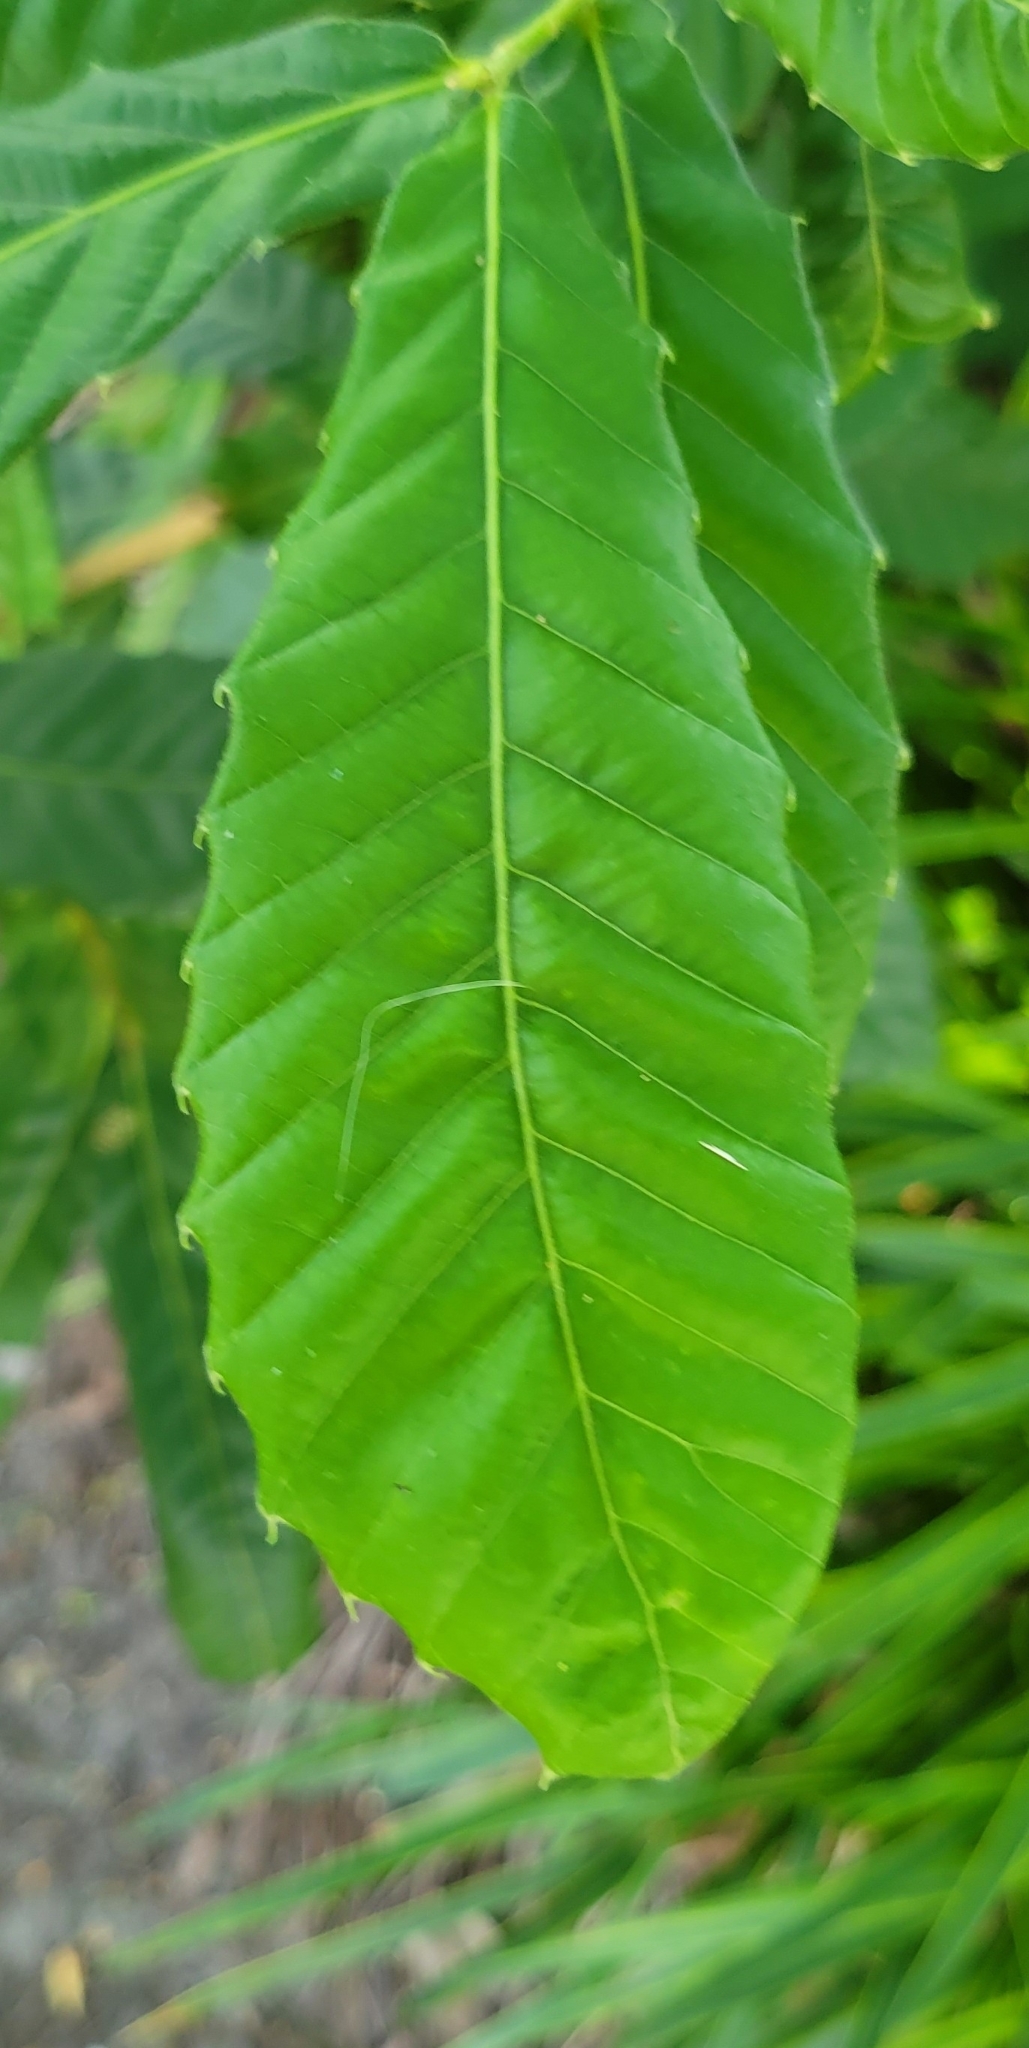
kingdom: Plantae
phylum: Tracheophyta
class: Magnoliopsida
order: Fagales
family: Fagaceae
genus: Castanea
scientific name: Castanea pumila
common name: Chinkapin
